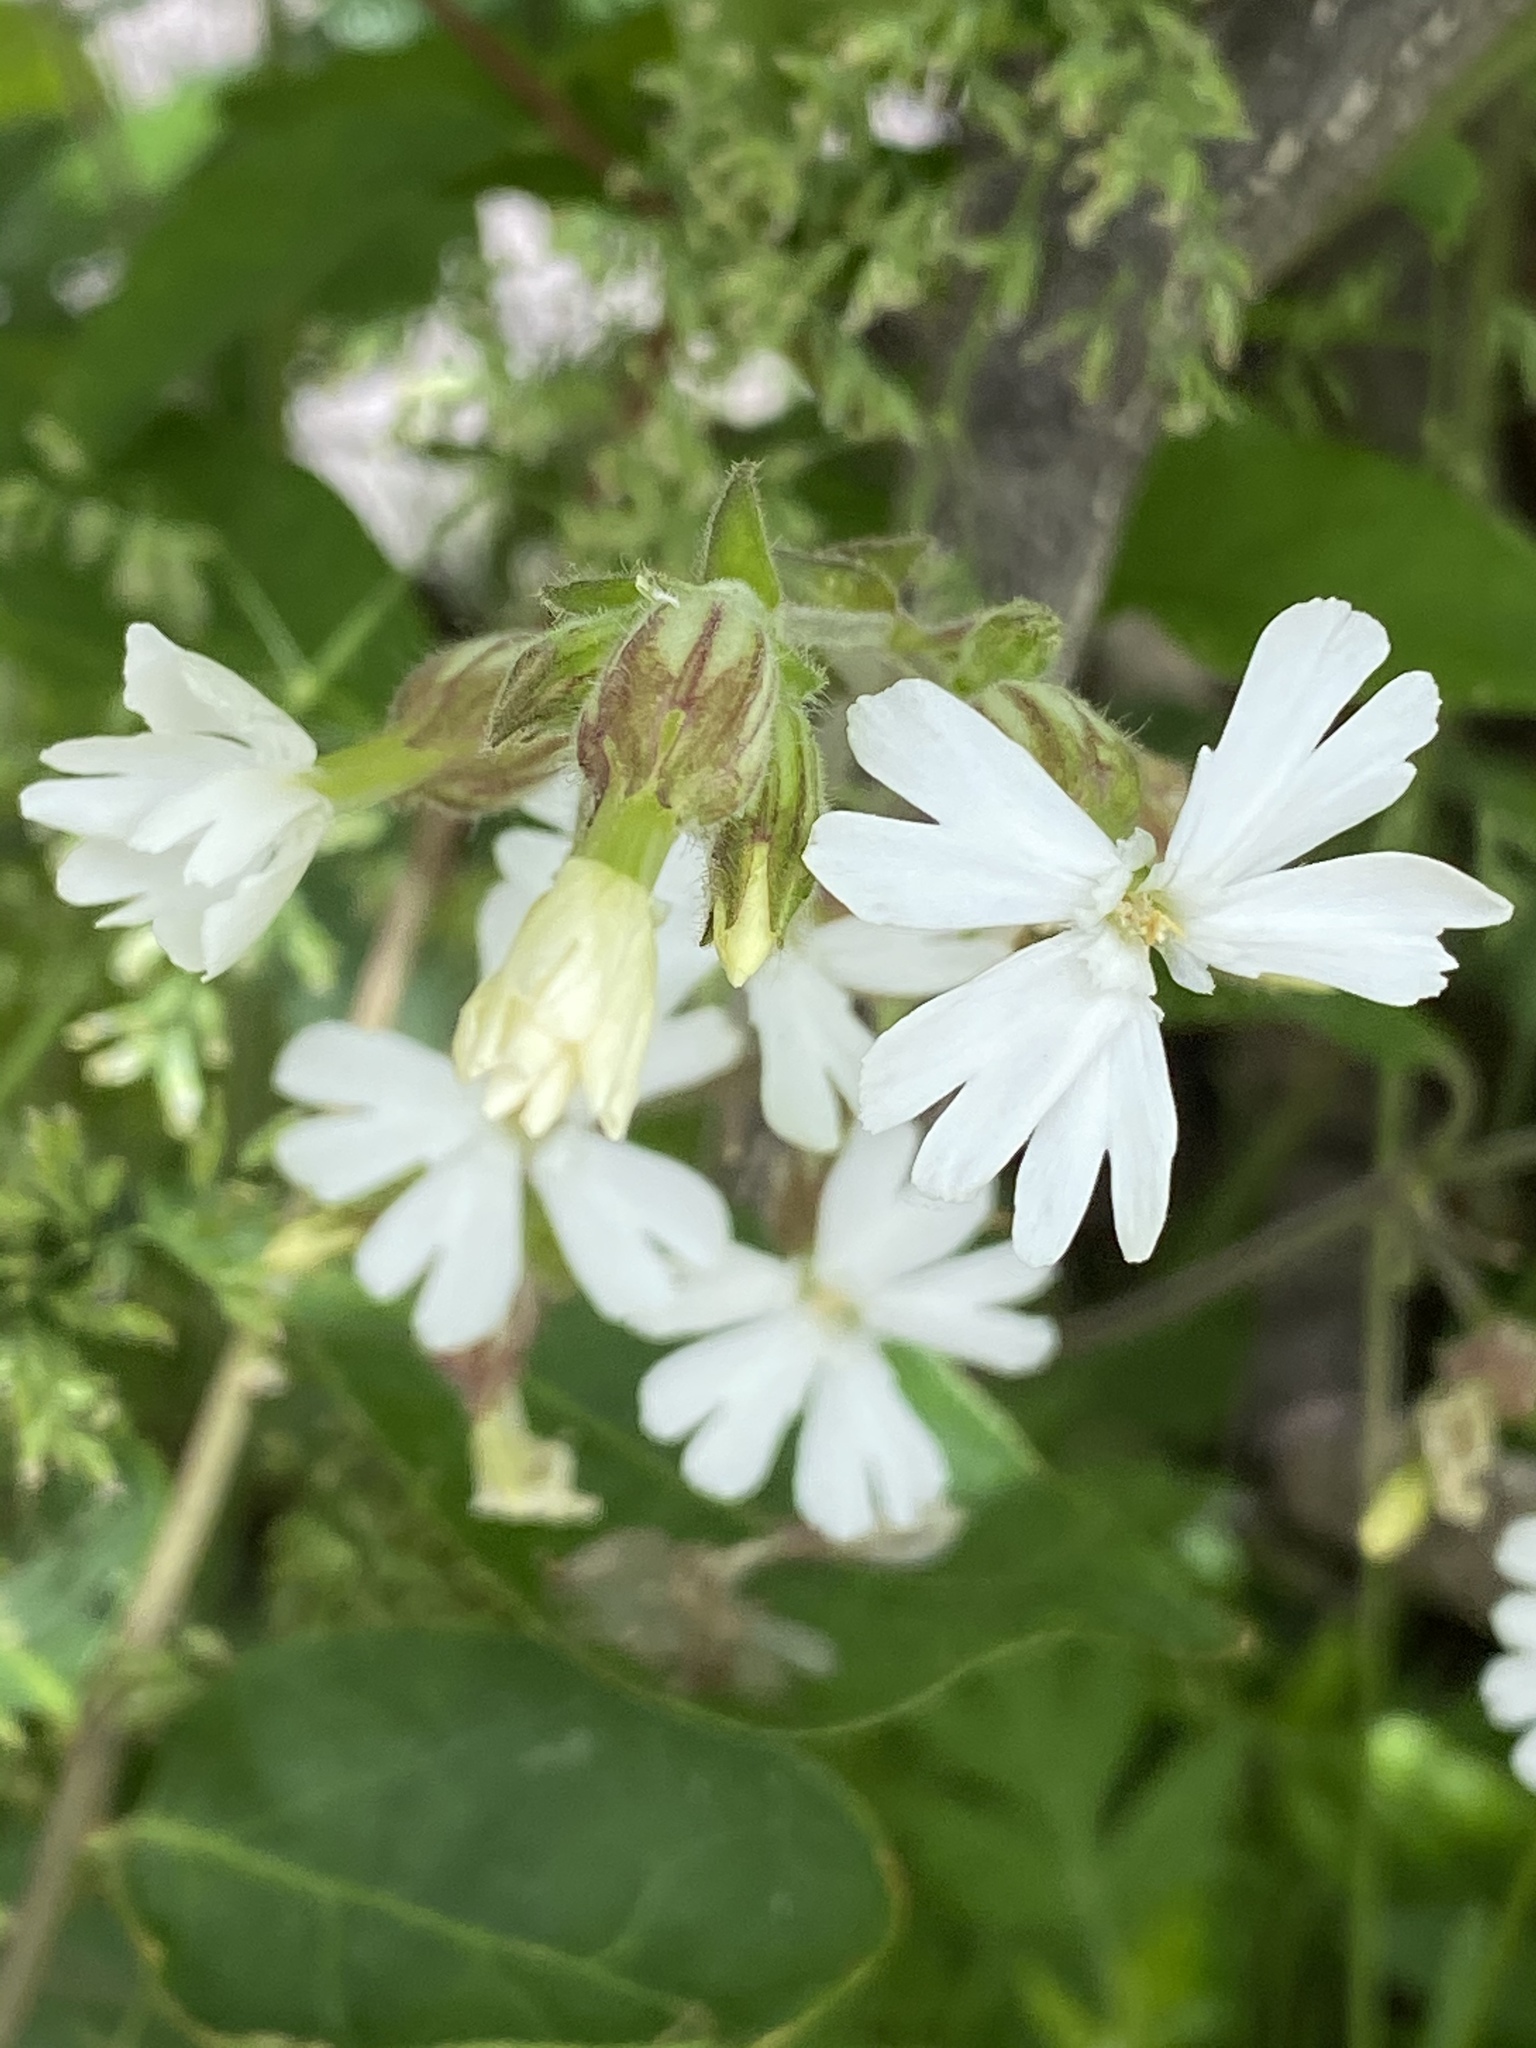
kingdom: Plantae
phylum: Tracheophyta
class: Magnoliopsida
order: Caryophyllales
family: Caryophyllaceae
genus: Silene
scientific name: Silene latifolia
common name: White campion
